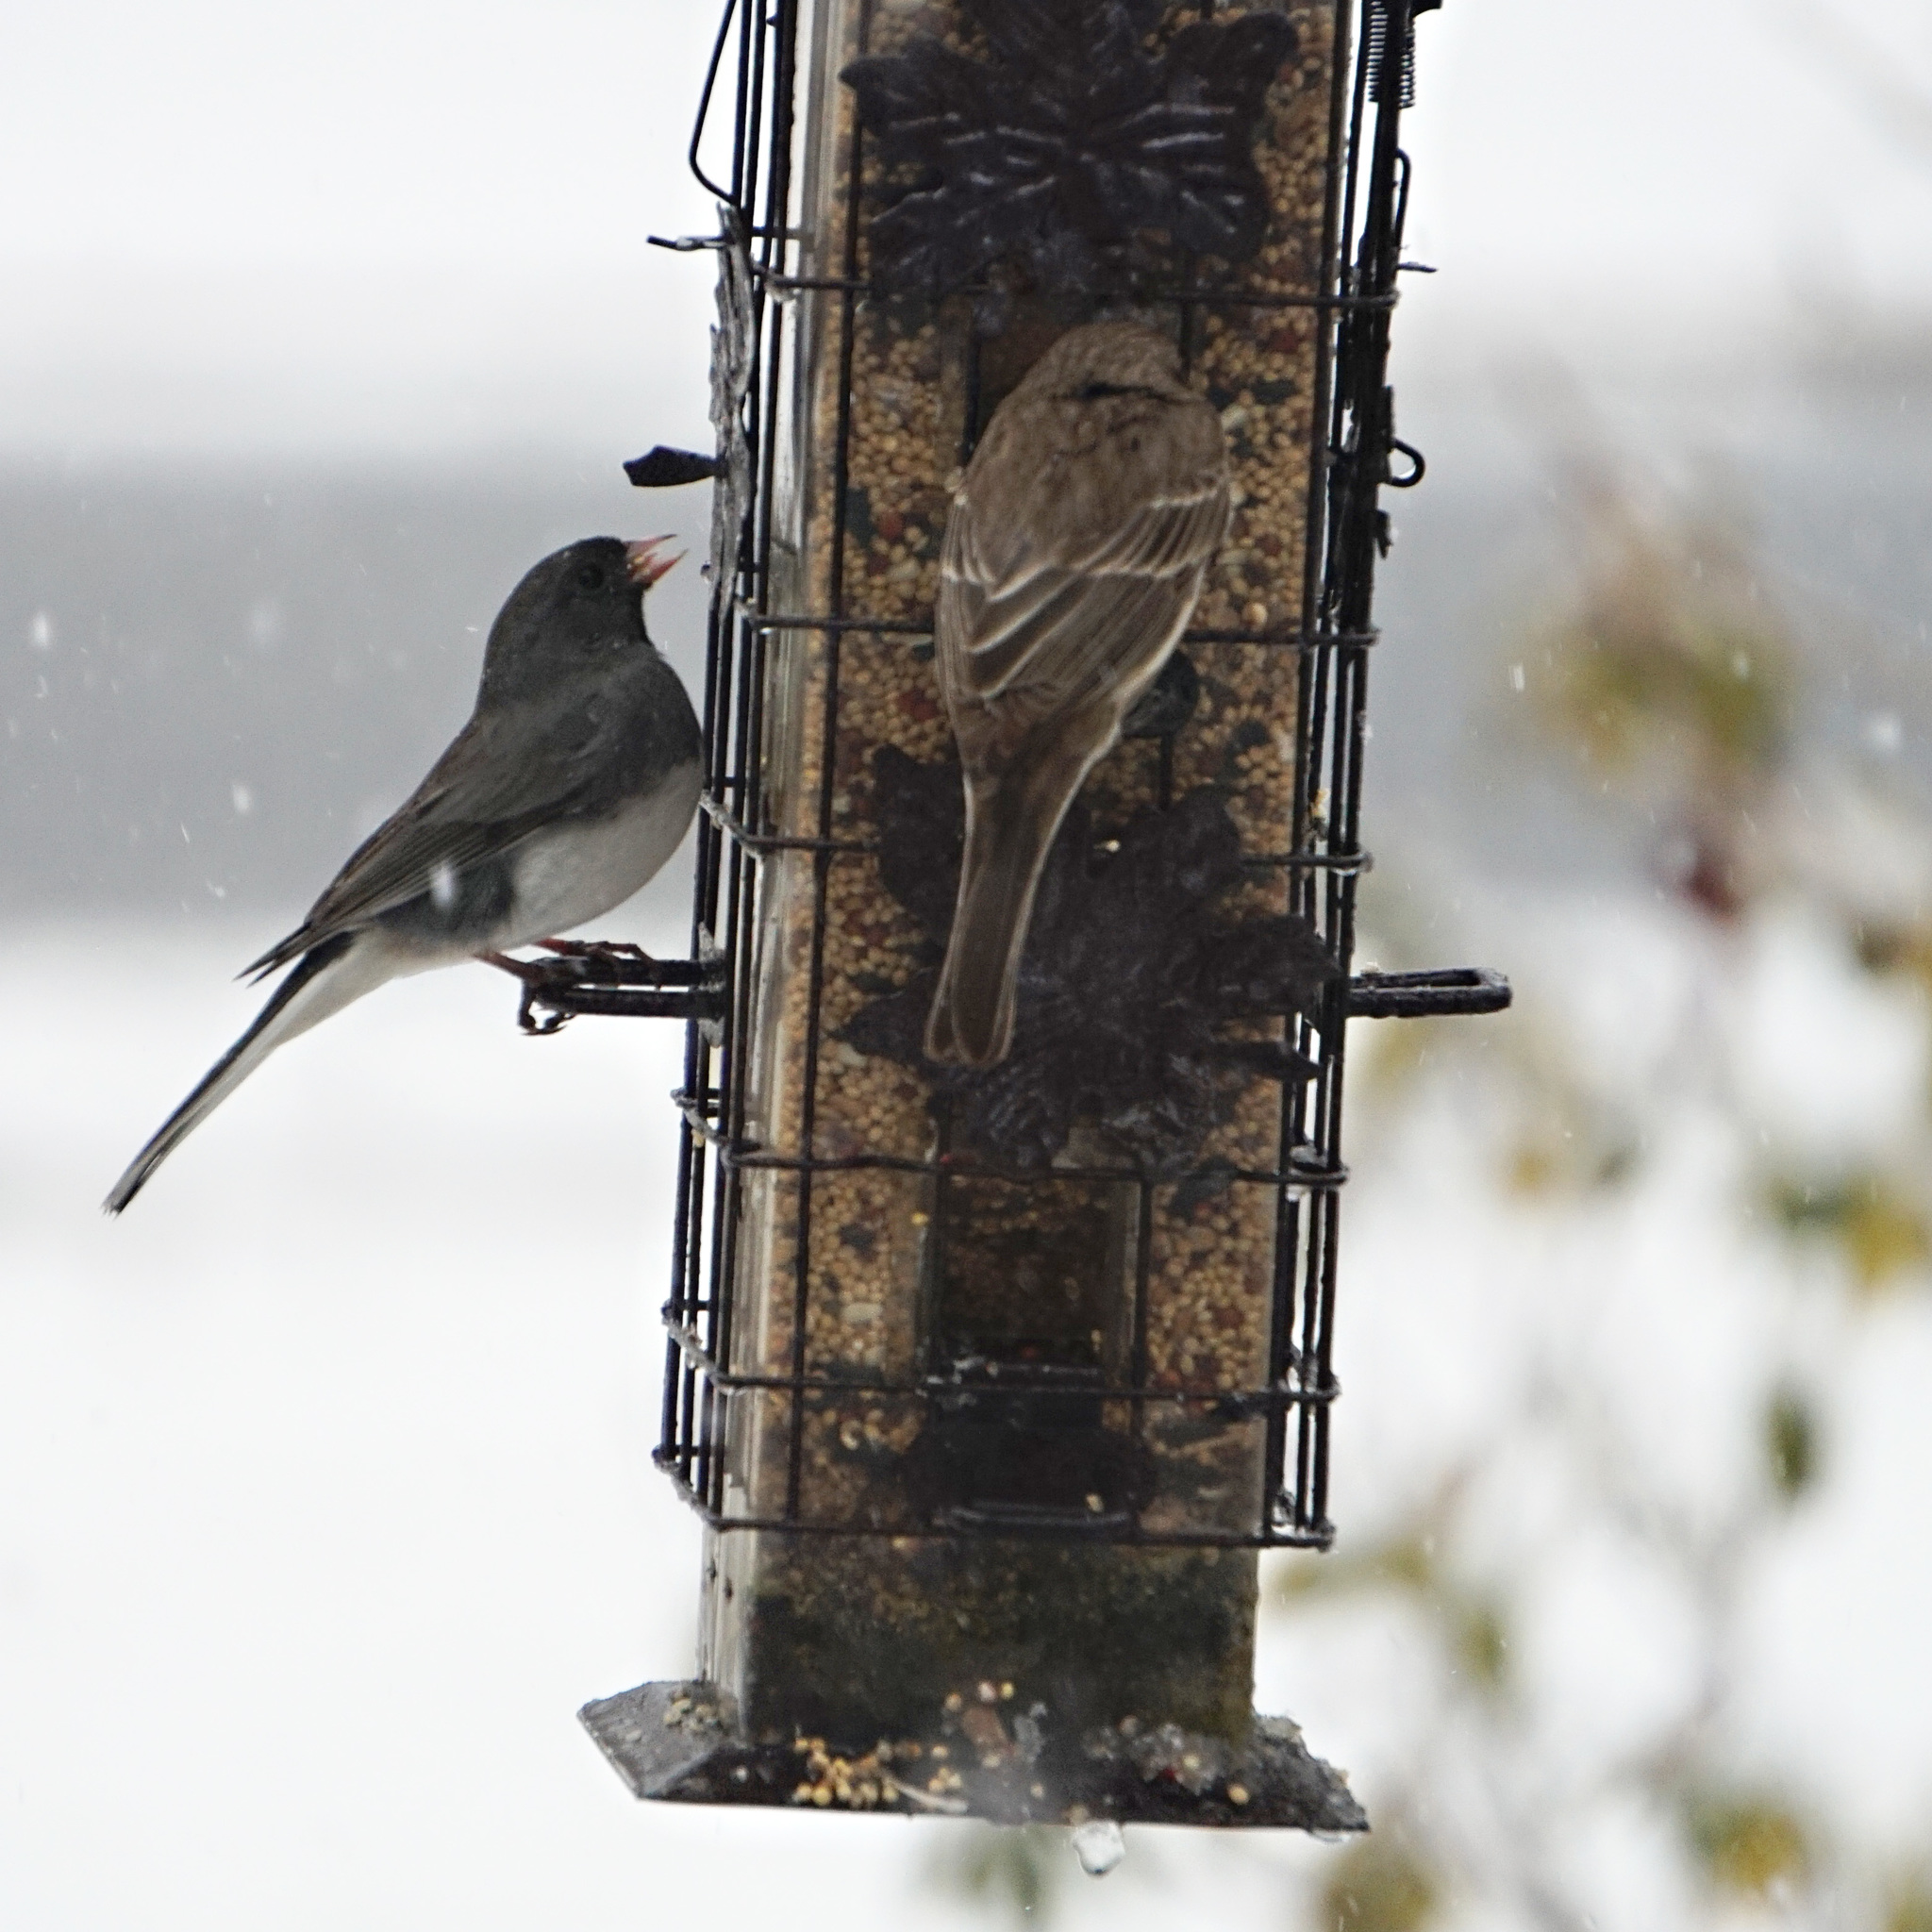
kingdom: Animalia
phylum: Chordata
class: Aves
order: Passeriformes
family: Passerellidae
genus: Junco
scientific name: Junco hyemalis
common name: Dark-eyed junco
